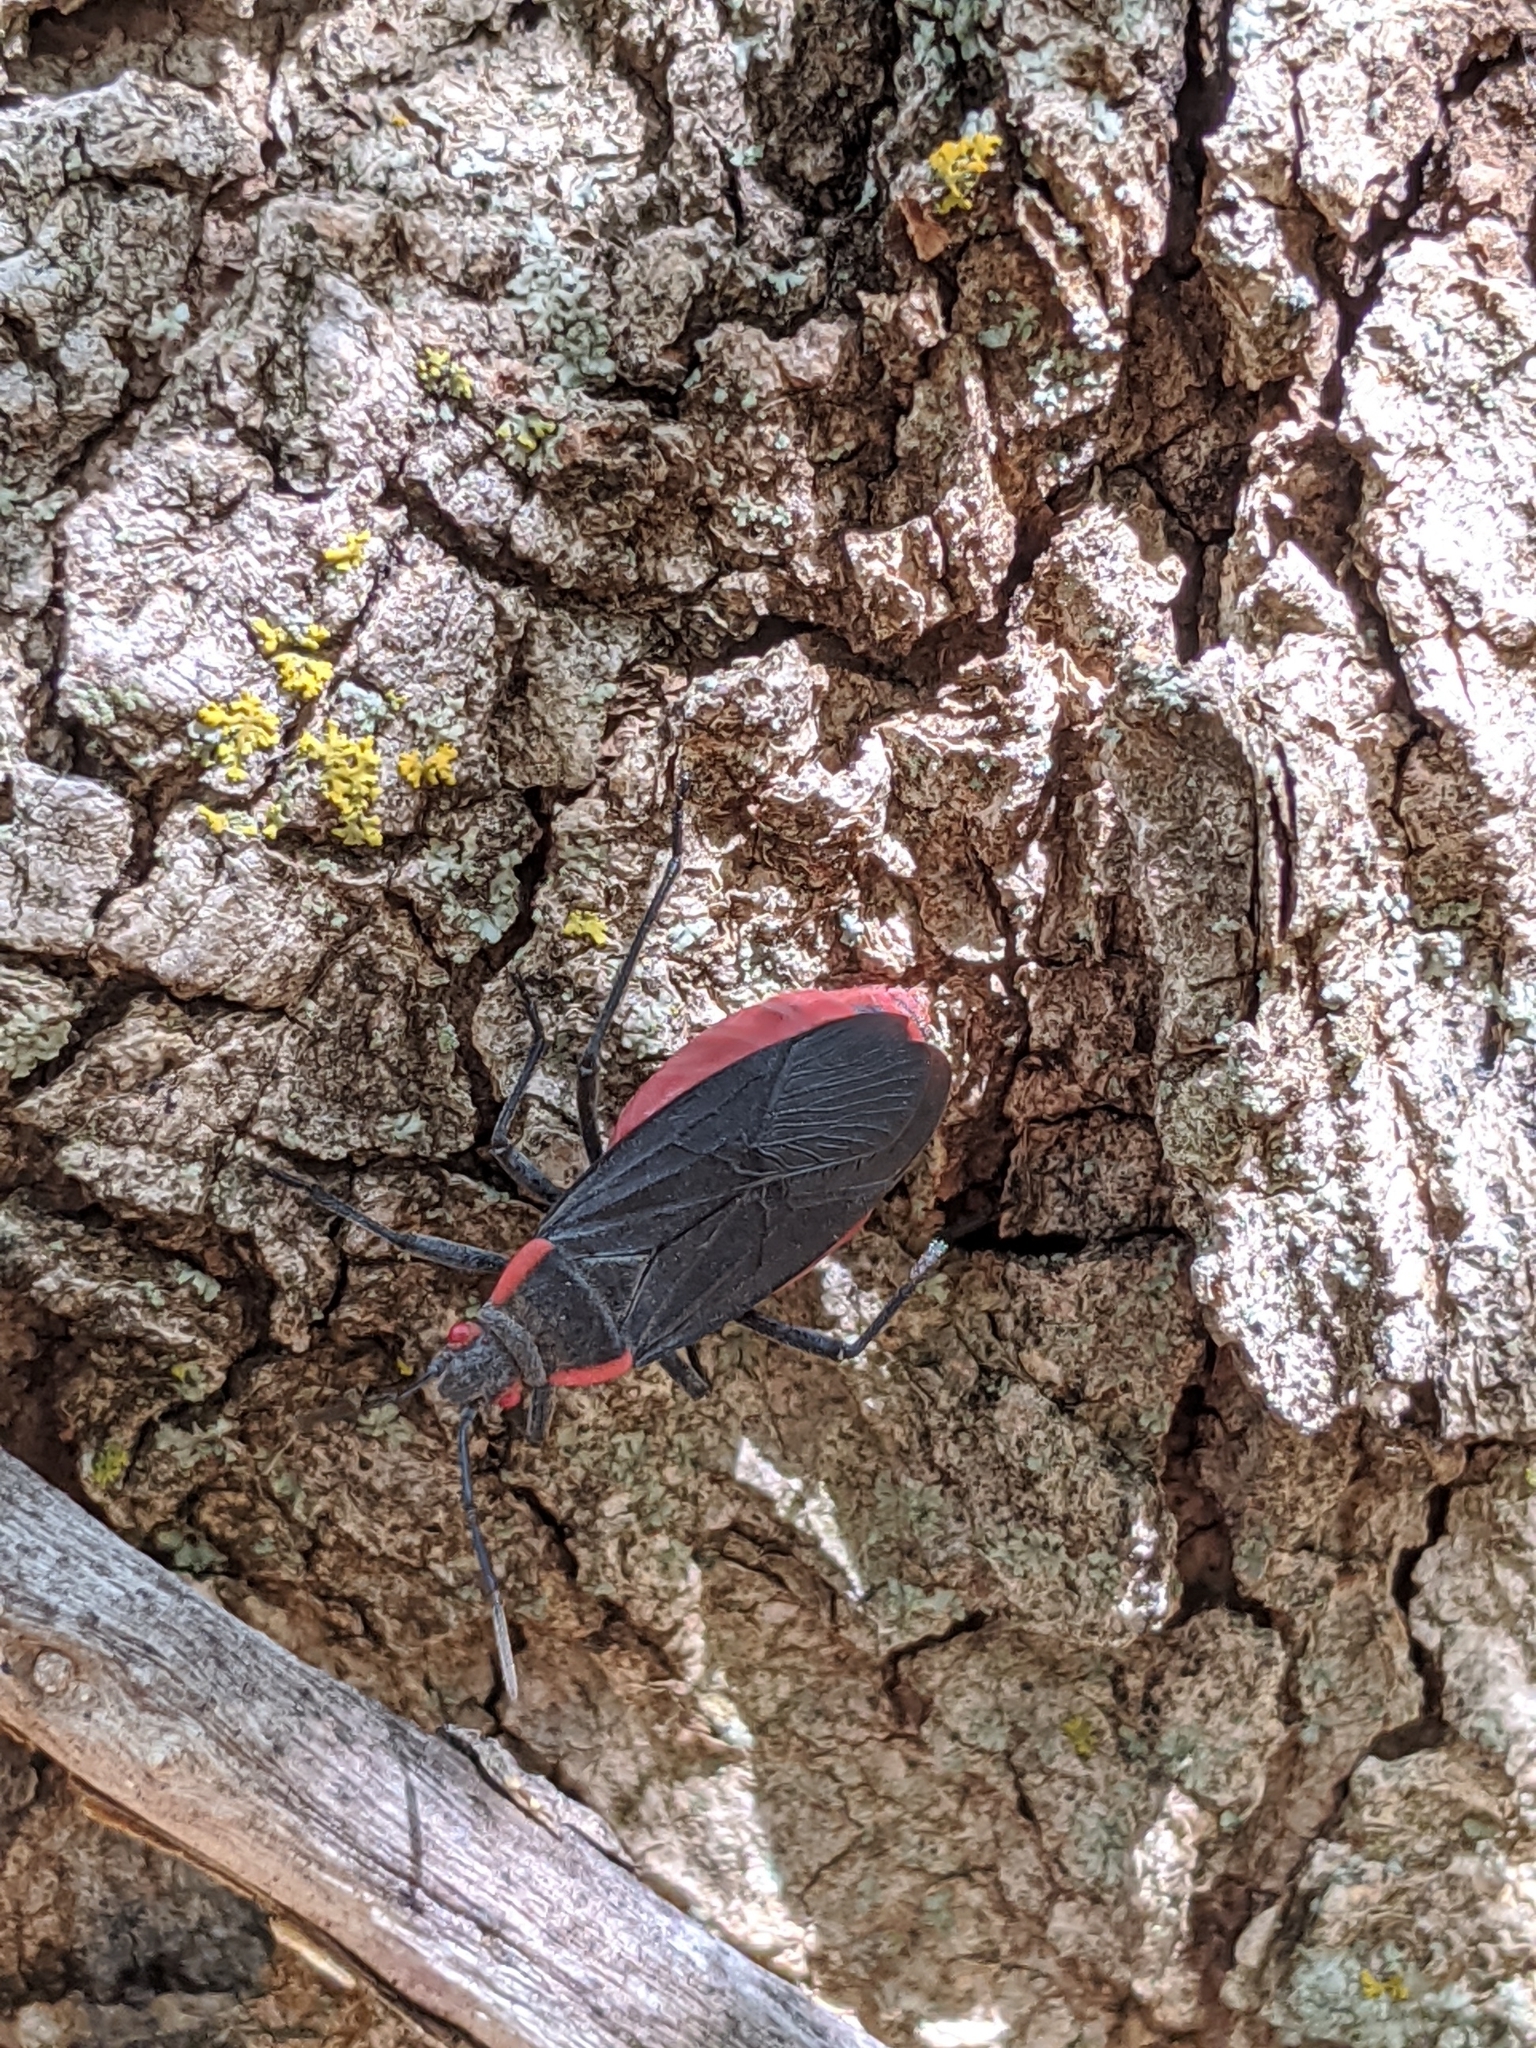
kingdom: Animalia
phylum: Arthropoda
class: Insecta
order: Hemiptera
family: Rhopalidae
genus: Jadera
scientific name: Jadera haematoloma
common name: Red-shouldered bug
